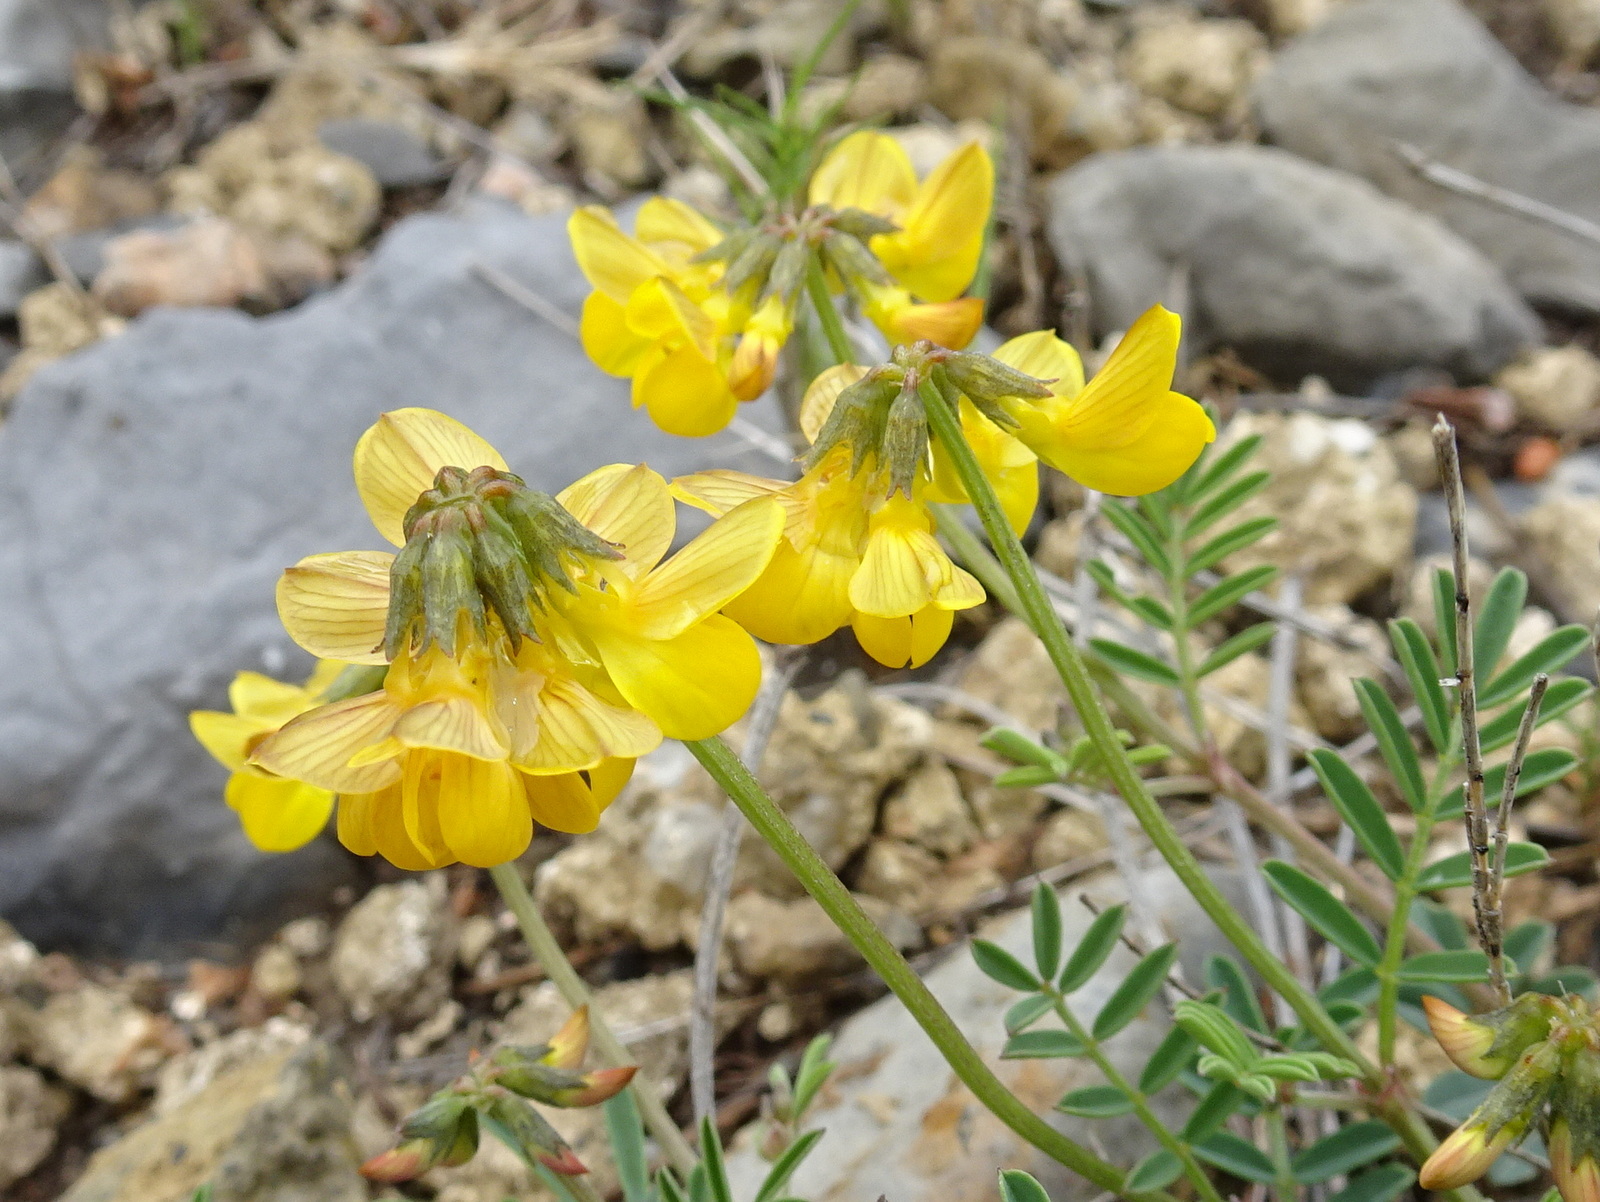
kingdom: Plantae
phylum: Tracheophyta
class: Magnoliopsida
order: Fabales
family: Fabaceae
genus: Hippocrepis
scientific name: Hippocrepis comosa
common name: Horseshoe vetch
